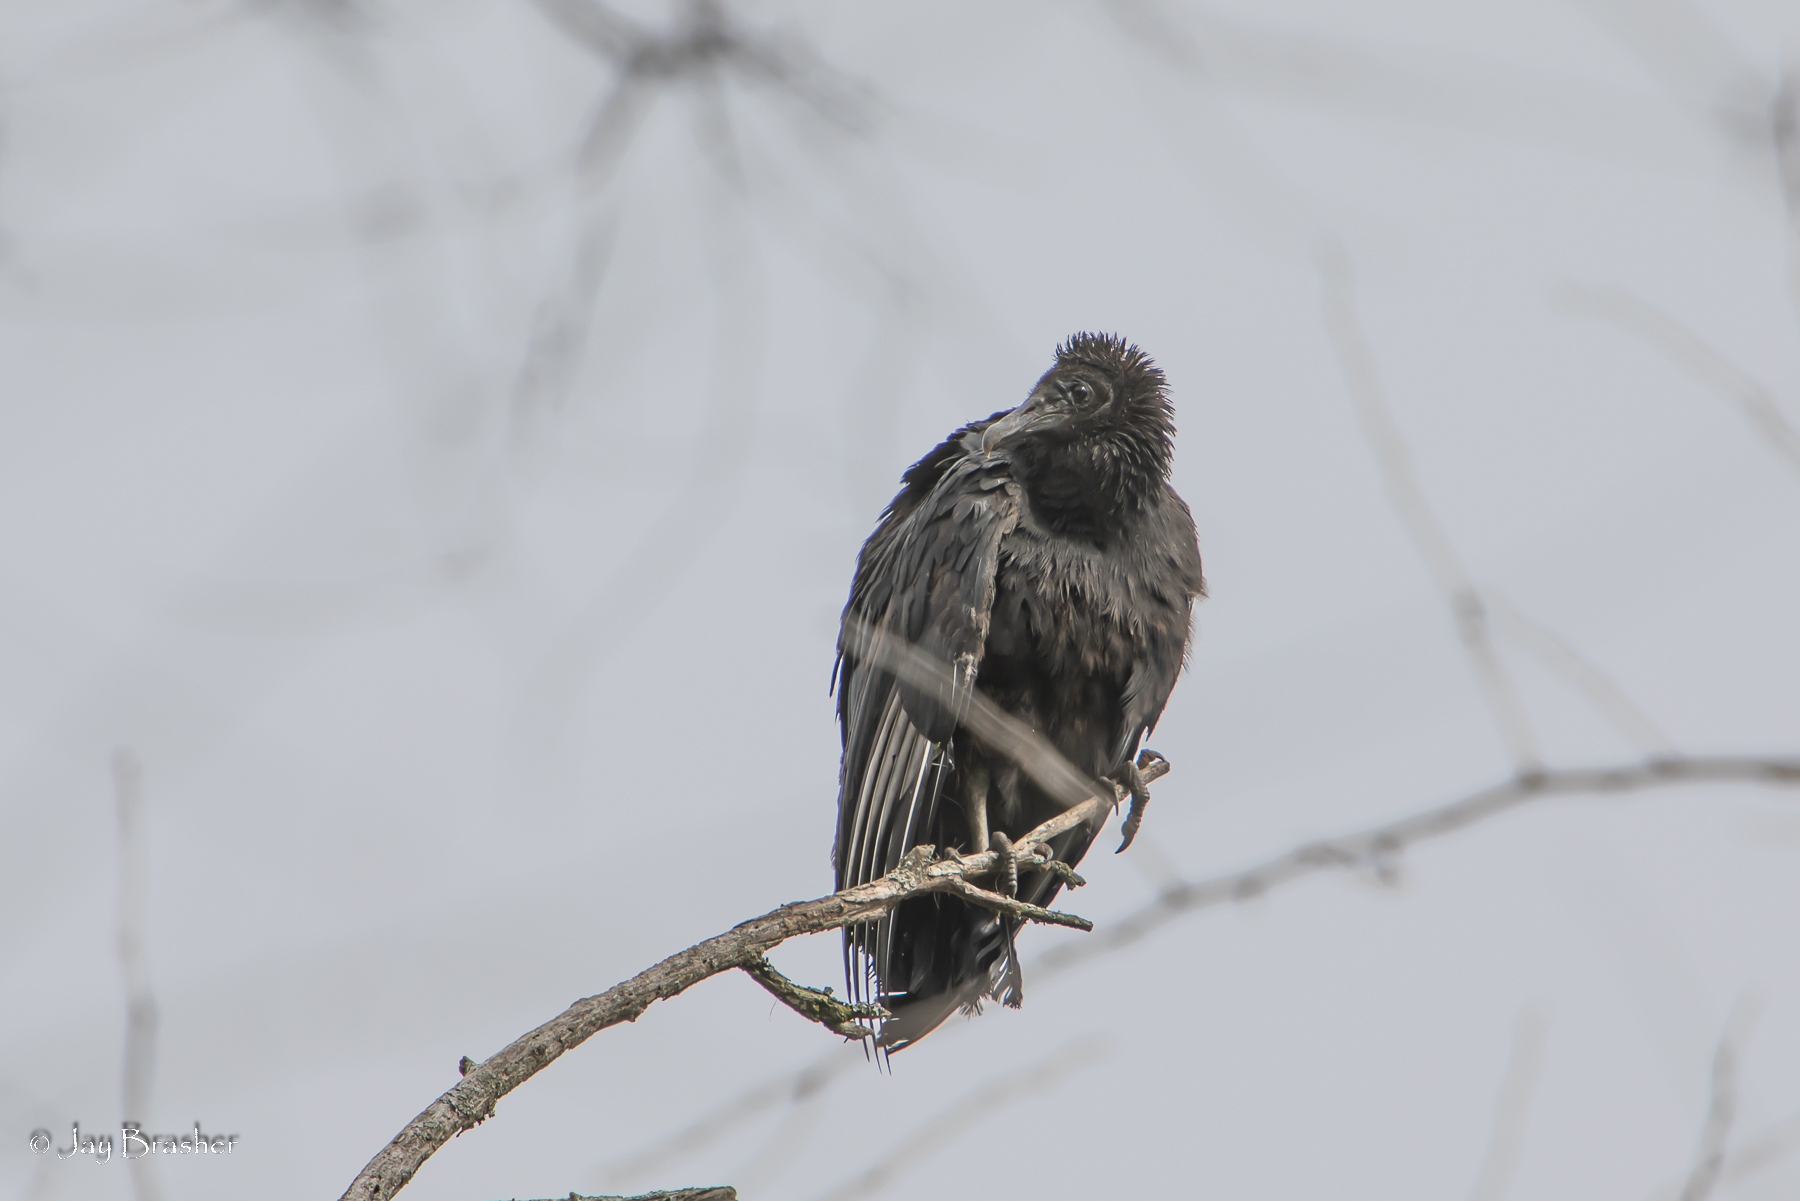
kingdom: Animalia
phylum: Chordata
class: Aves
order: Accipitriformes
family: Cathartidae
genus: Coragyps
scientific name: Coragyps atratus
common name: Black vulture
